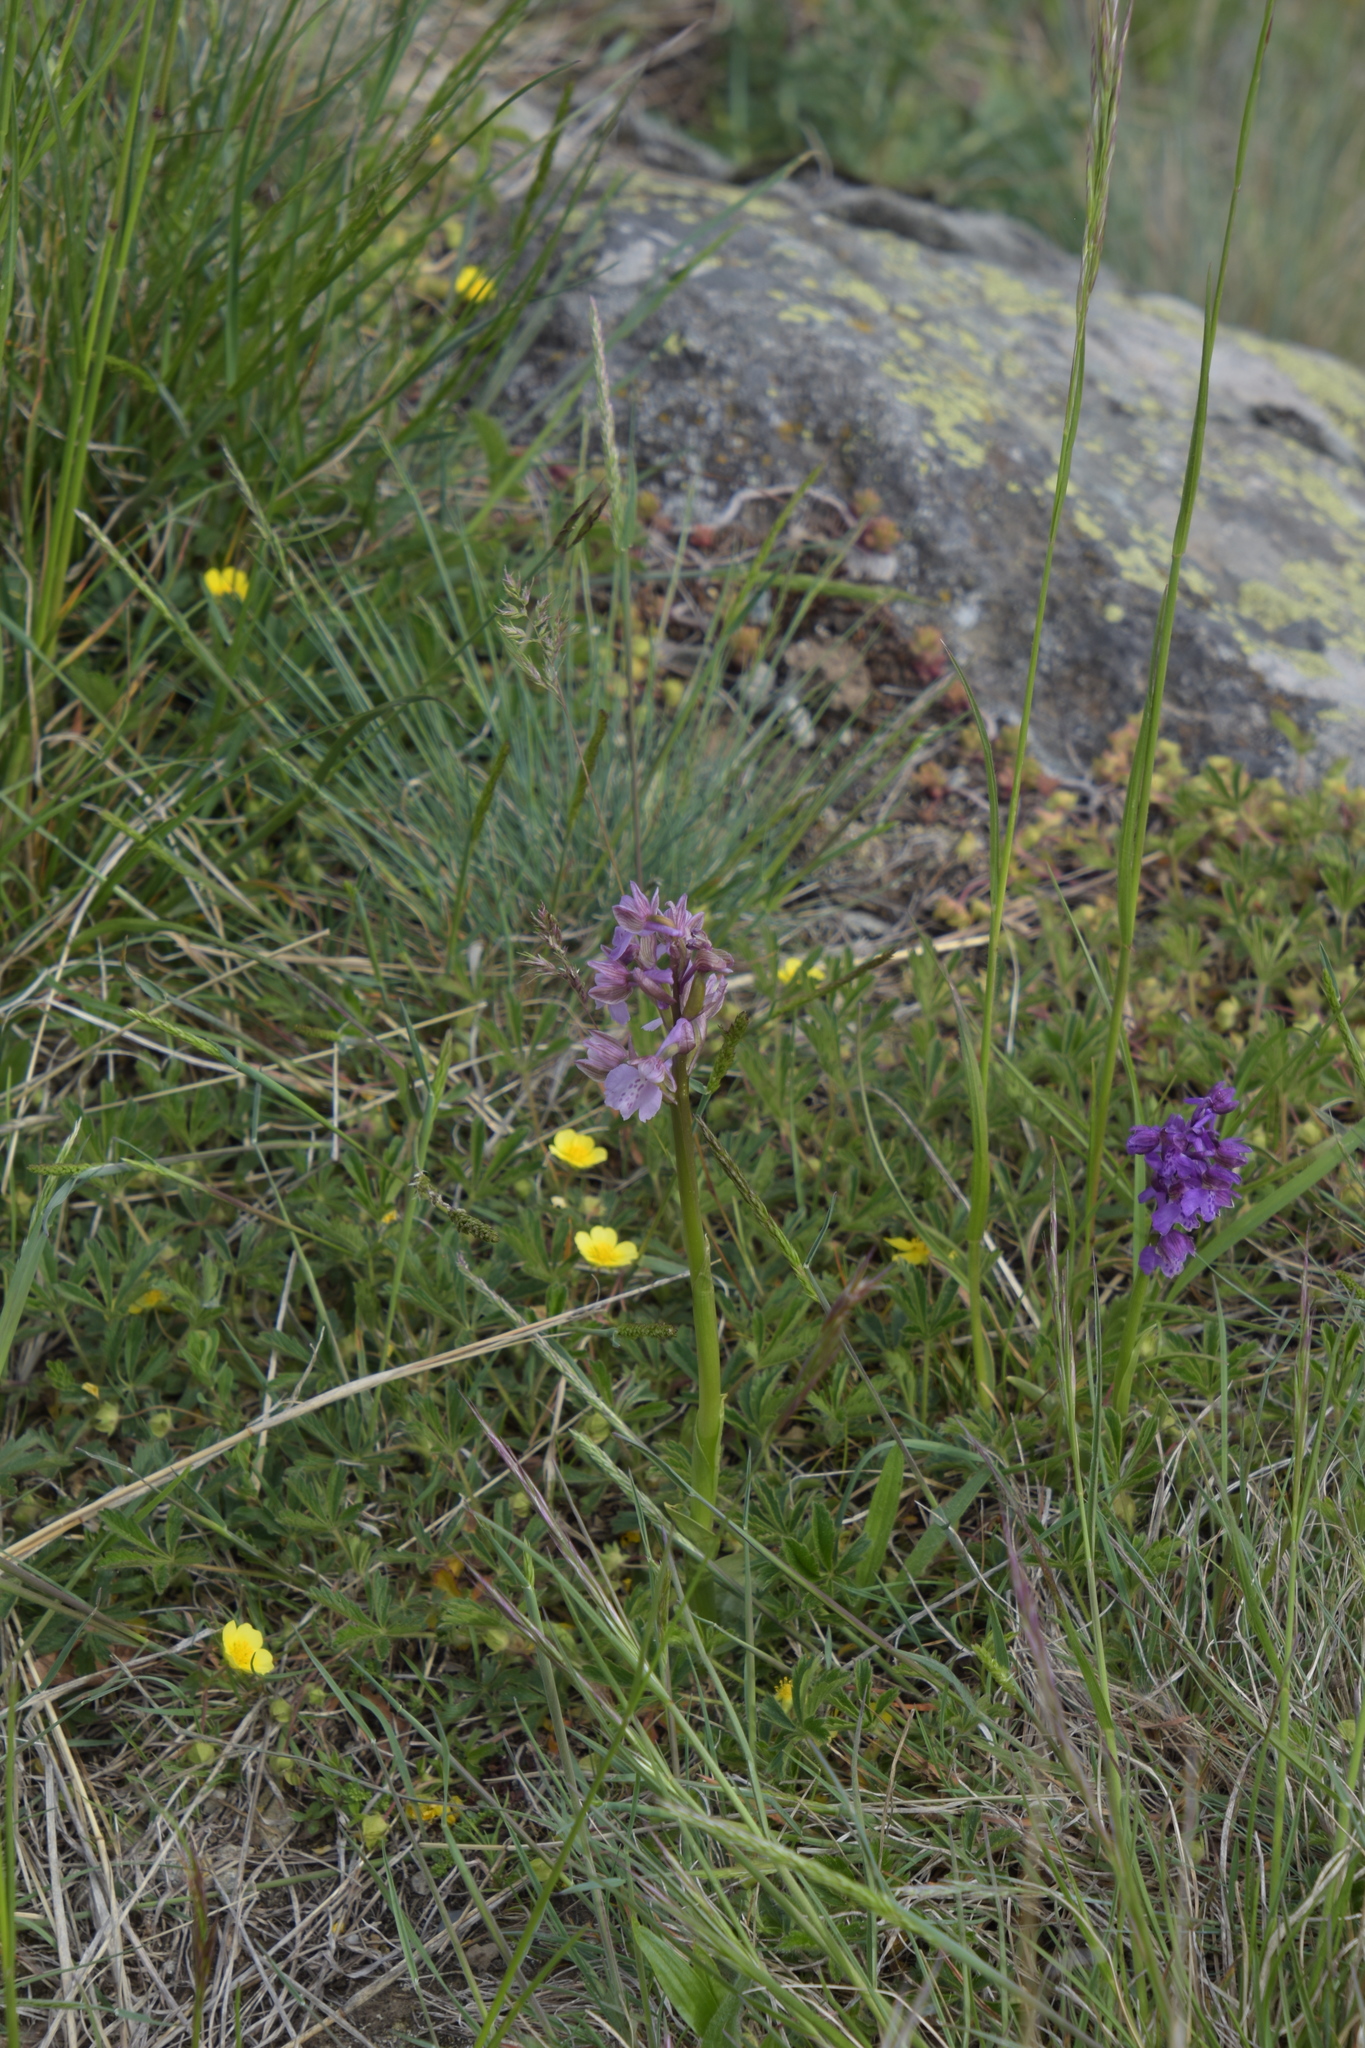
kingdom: Plantae
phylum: Tracheophyta
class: Liliopsida
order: Asparagales
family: Orchidaceae
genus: Anacamptis
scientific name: Anacamptis morio
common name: Green-winged orchid
